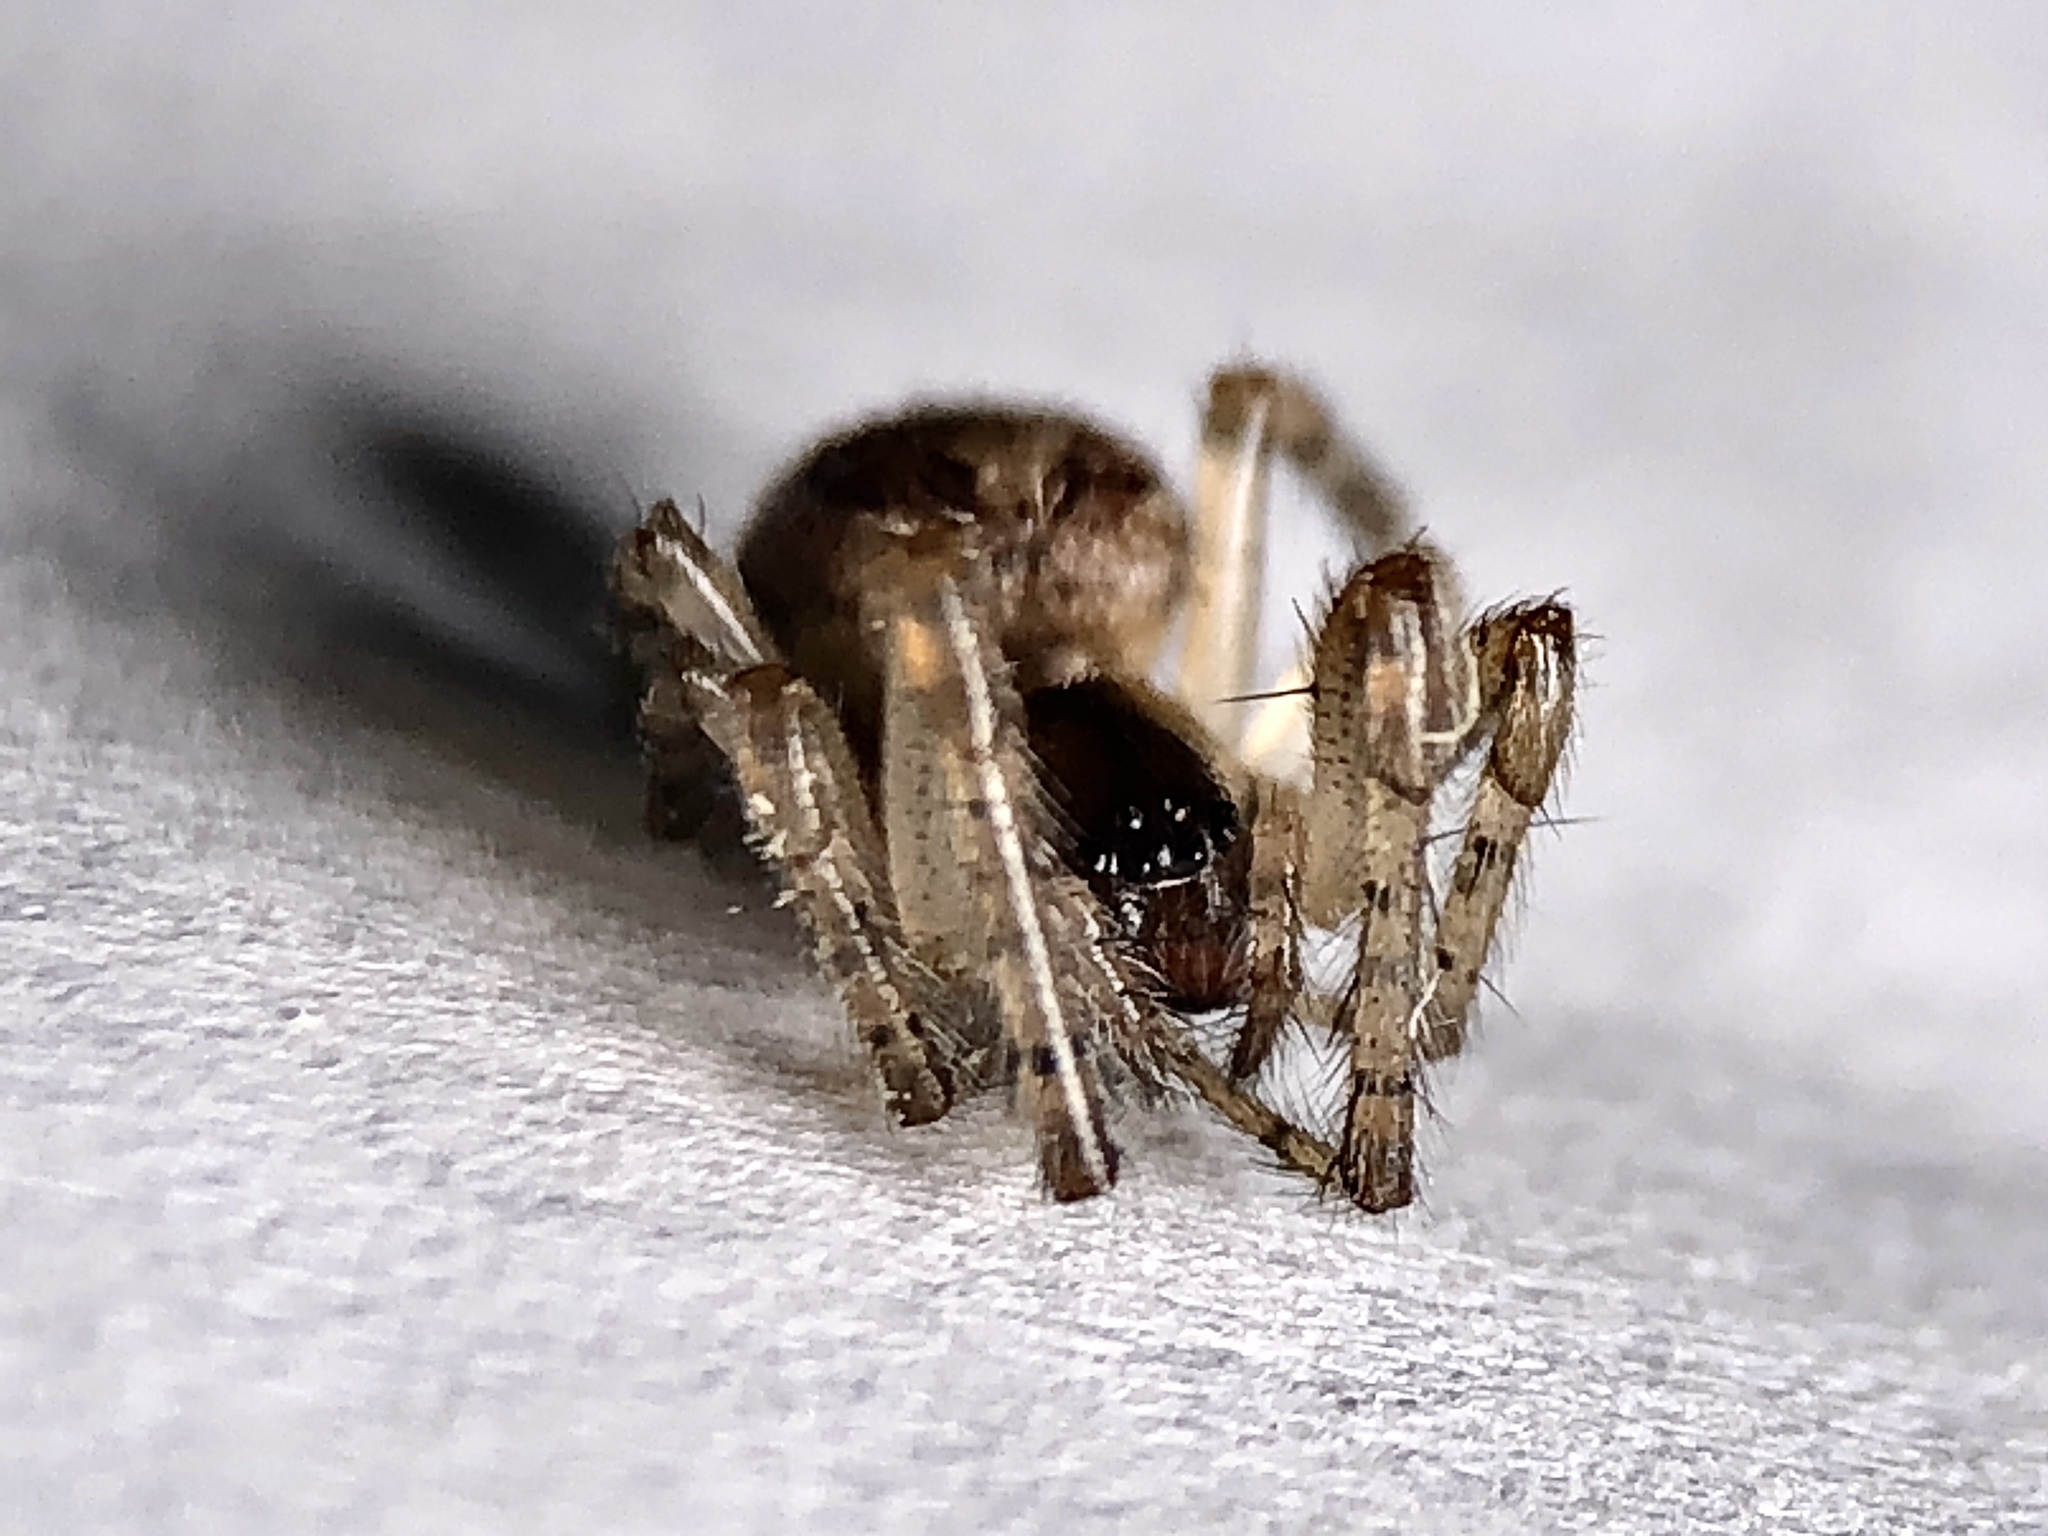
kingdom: Animalia
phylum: Arthropoda
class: Arachnida
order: Araneae
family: Araneidae
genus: Zygiella
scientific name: Zygiella x-notata
